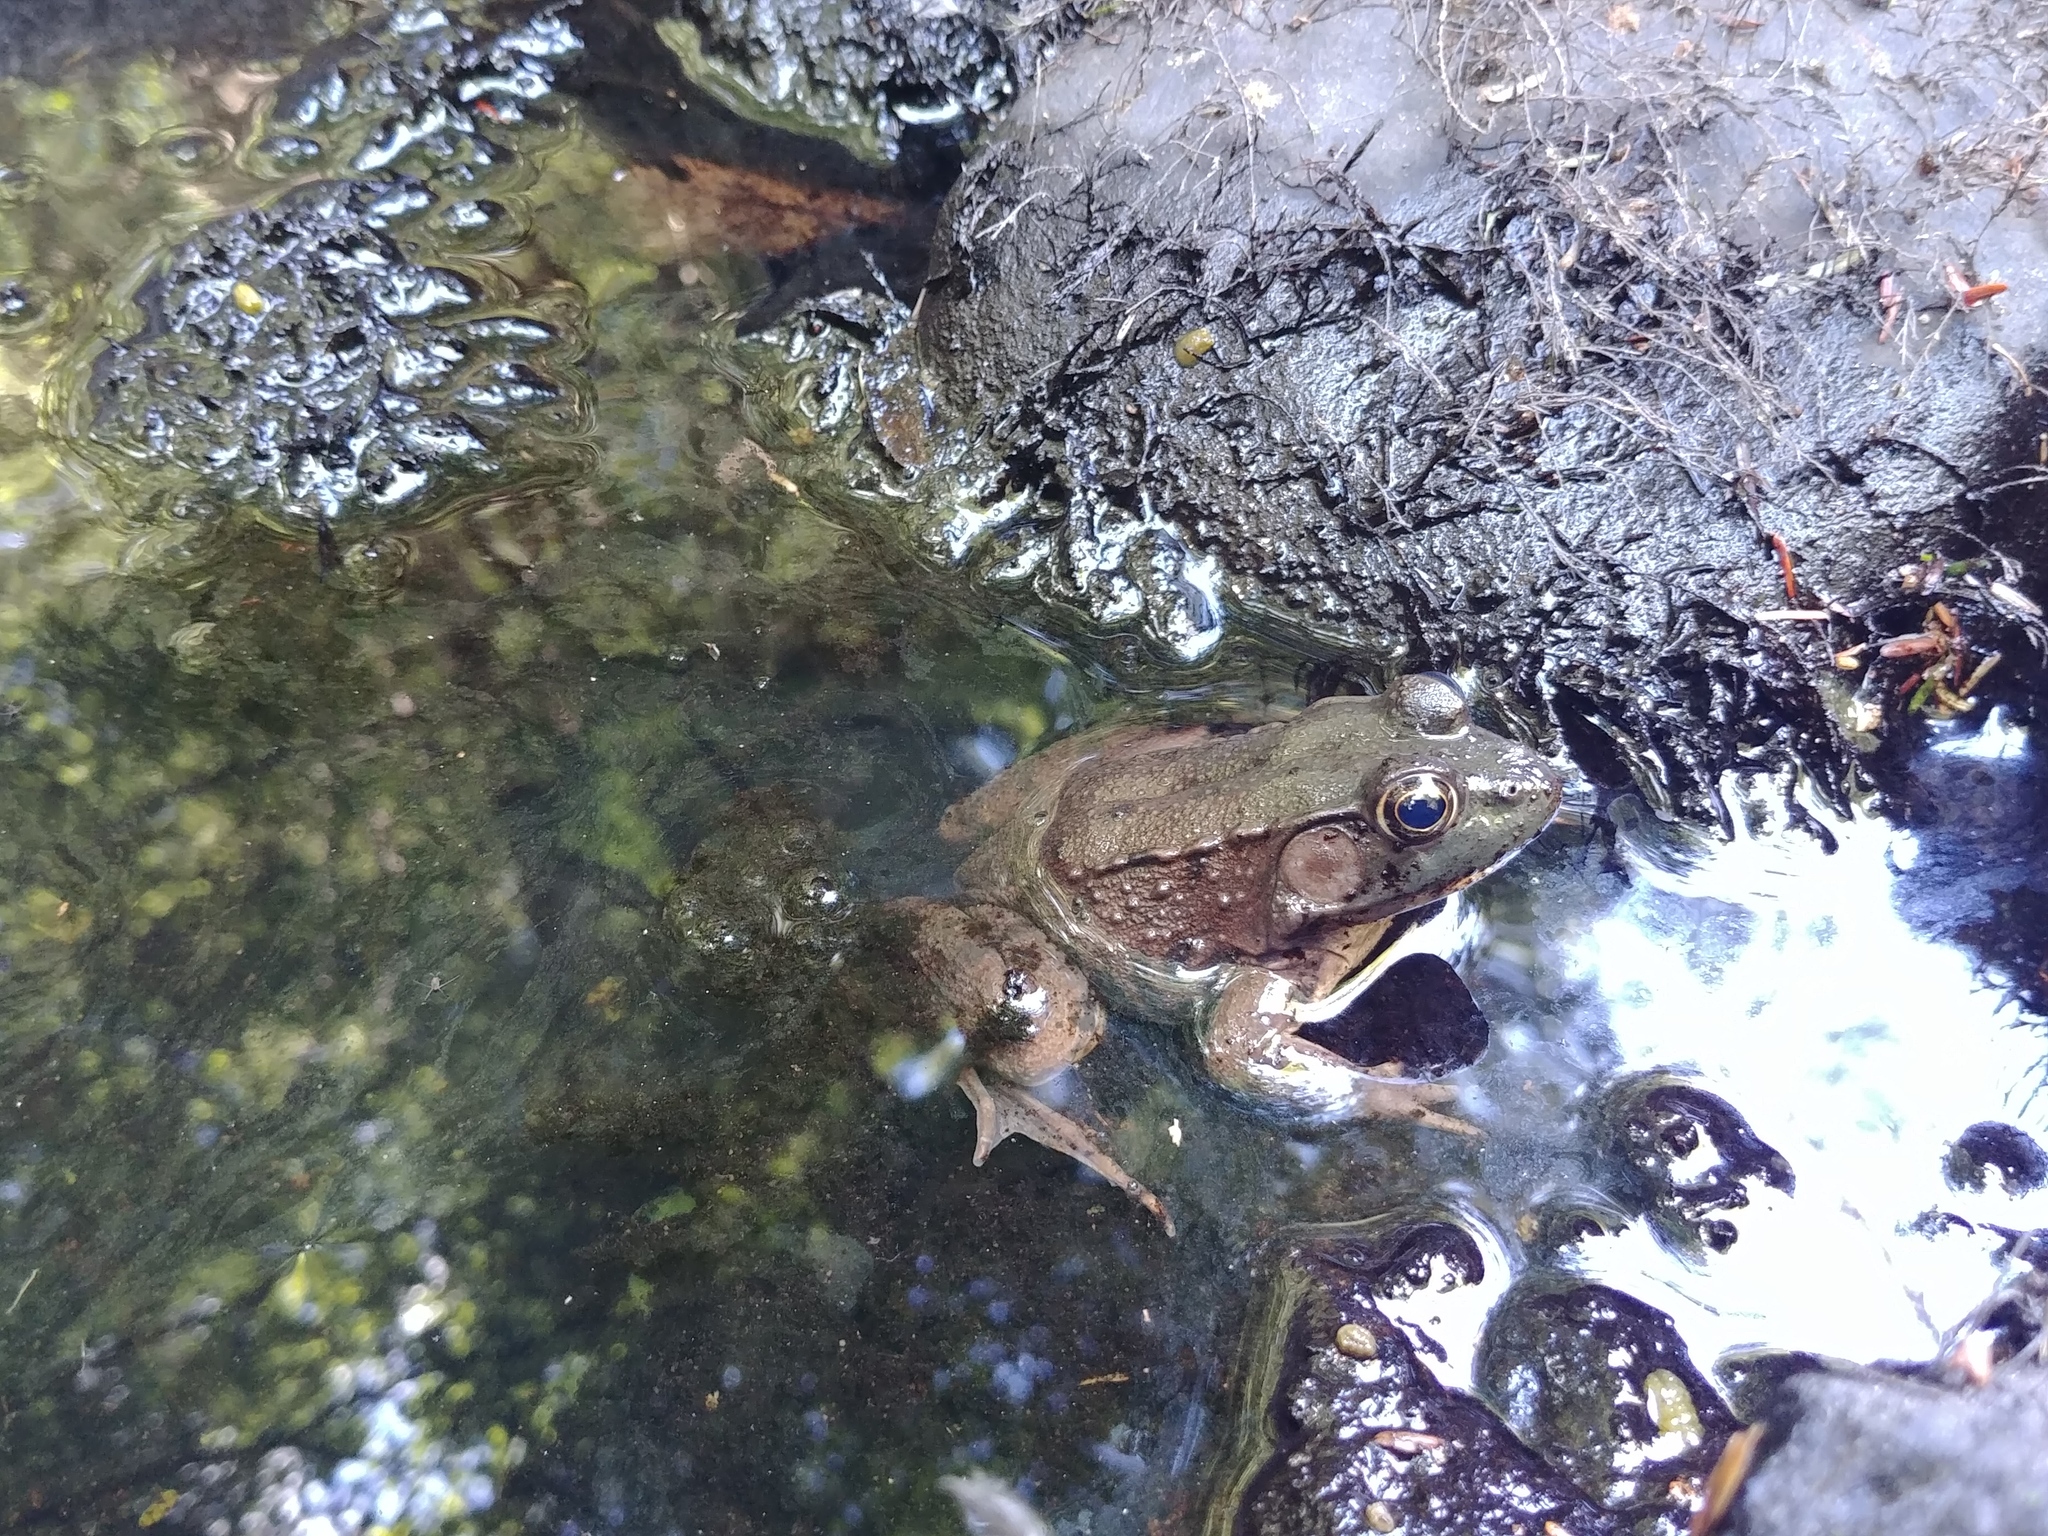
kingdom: Animalia
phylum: Chordata
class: Amphibia
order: Anura
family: Ranidae
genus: Lithobates
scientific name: Lithobates clamitans
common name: Green frog
